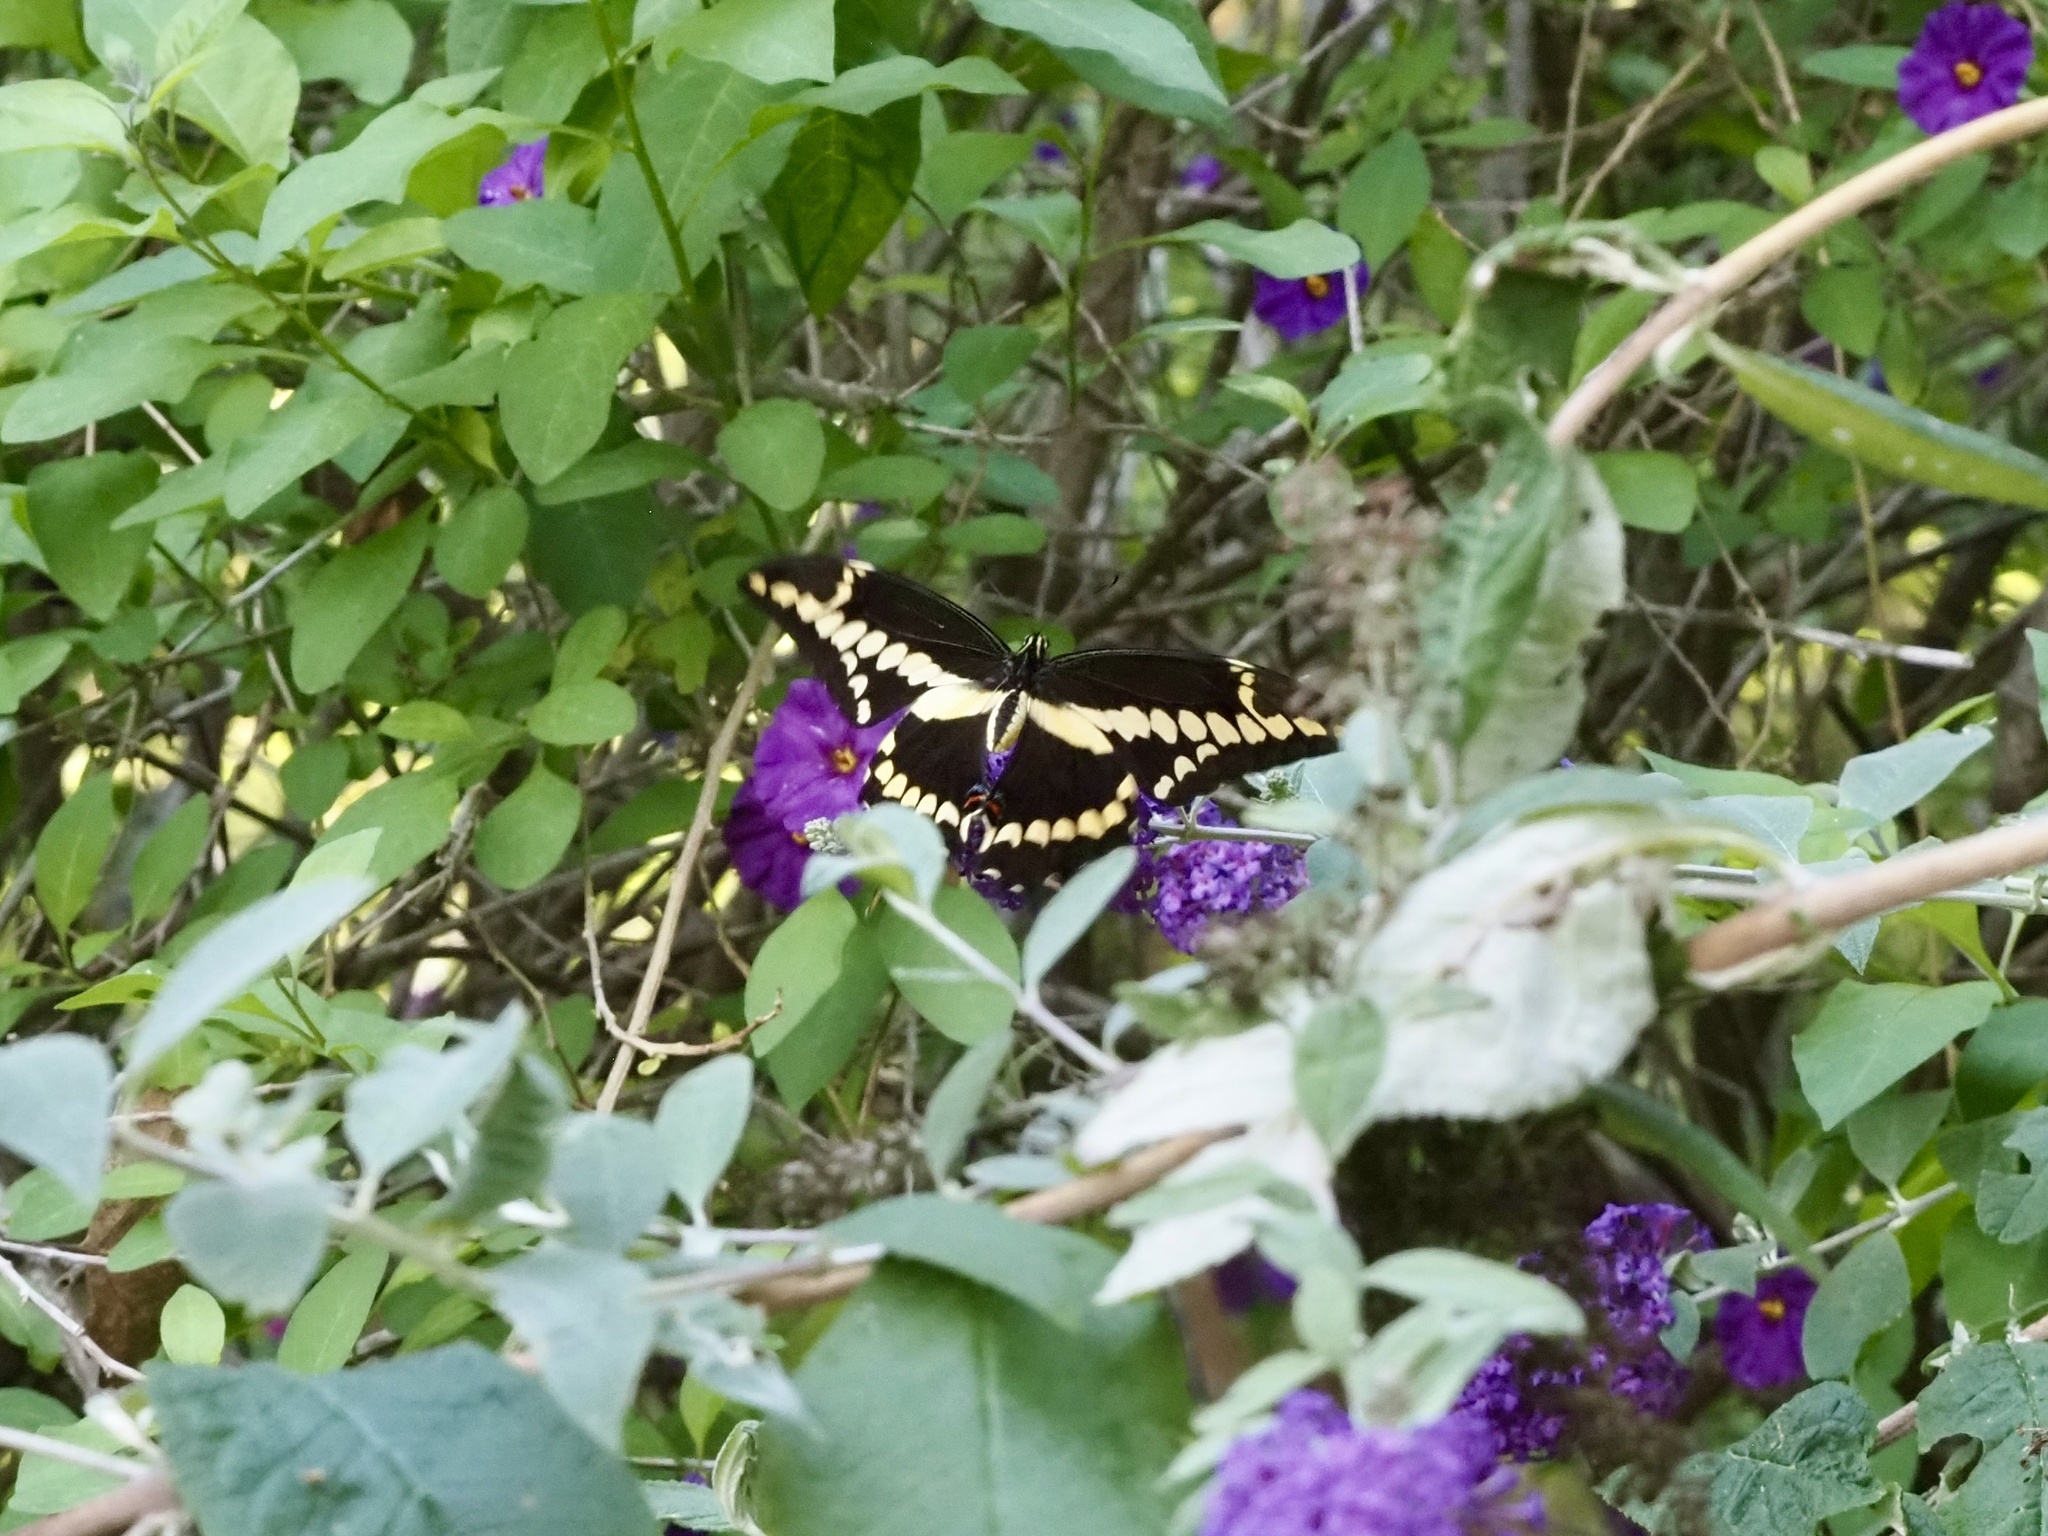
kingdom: Animalia
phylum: Arthropoda
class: Insecta
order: Lepidoptera
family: Papilionidae
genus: Papilio
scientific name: Papilio rumiko
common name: Western giant swallowtail
